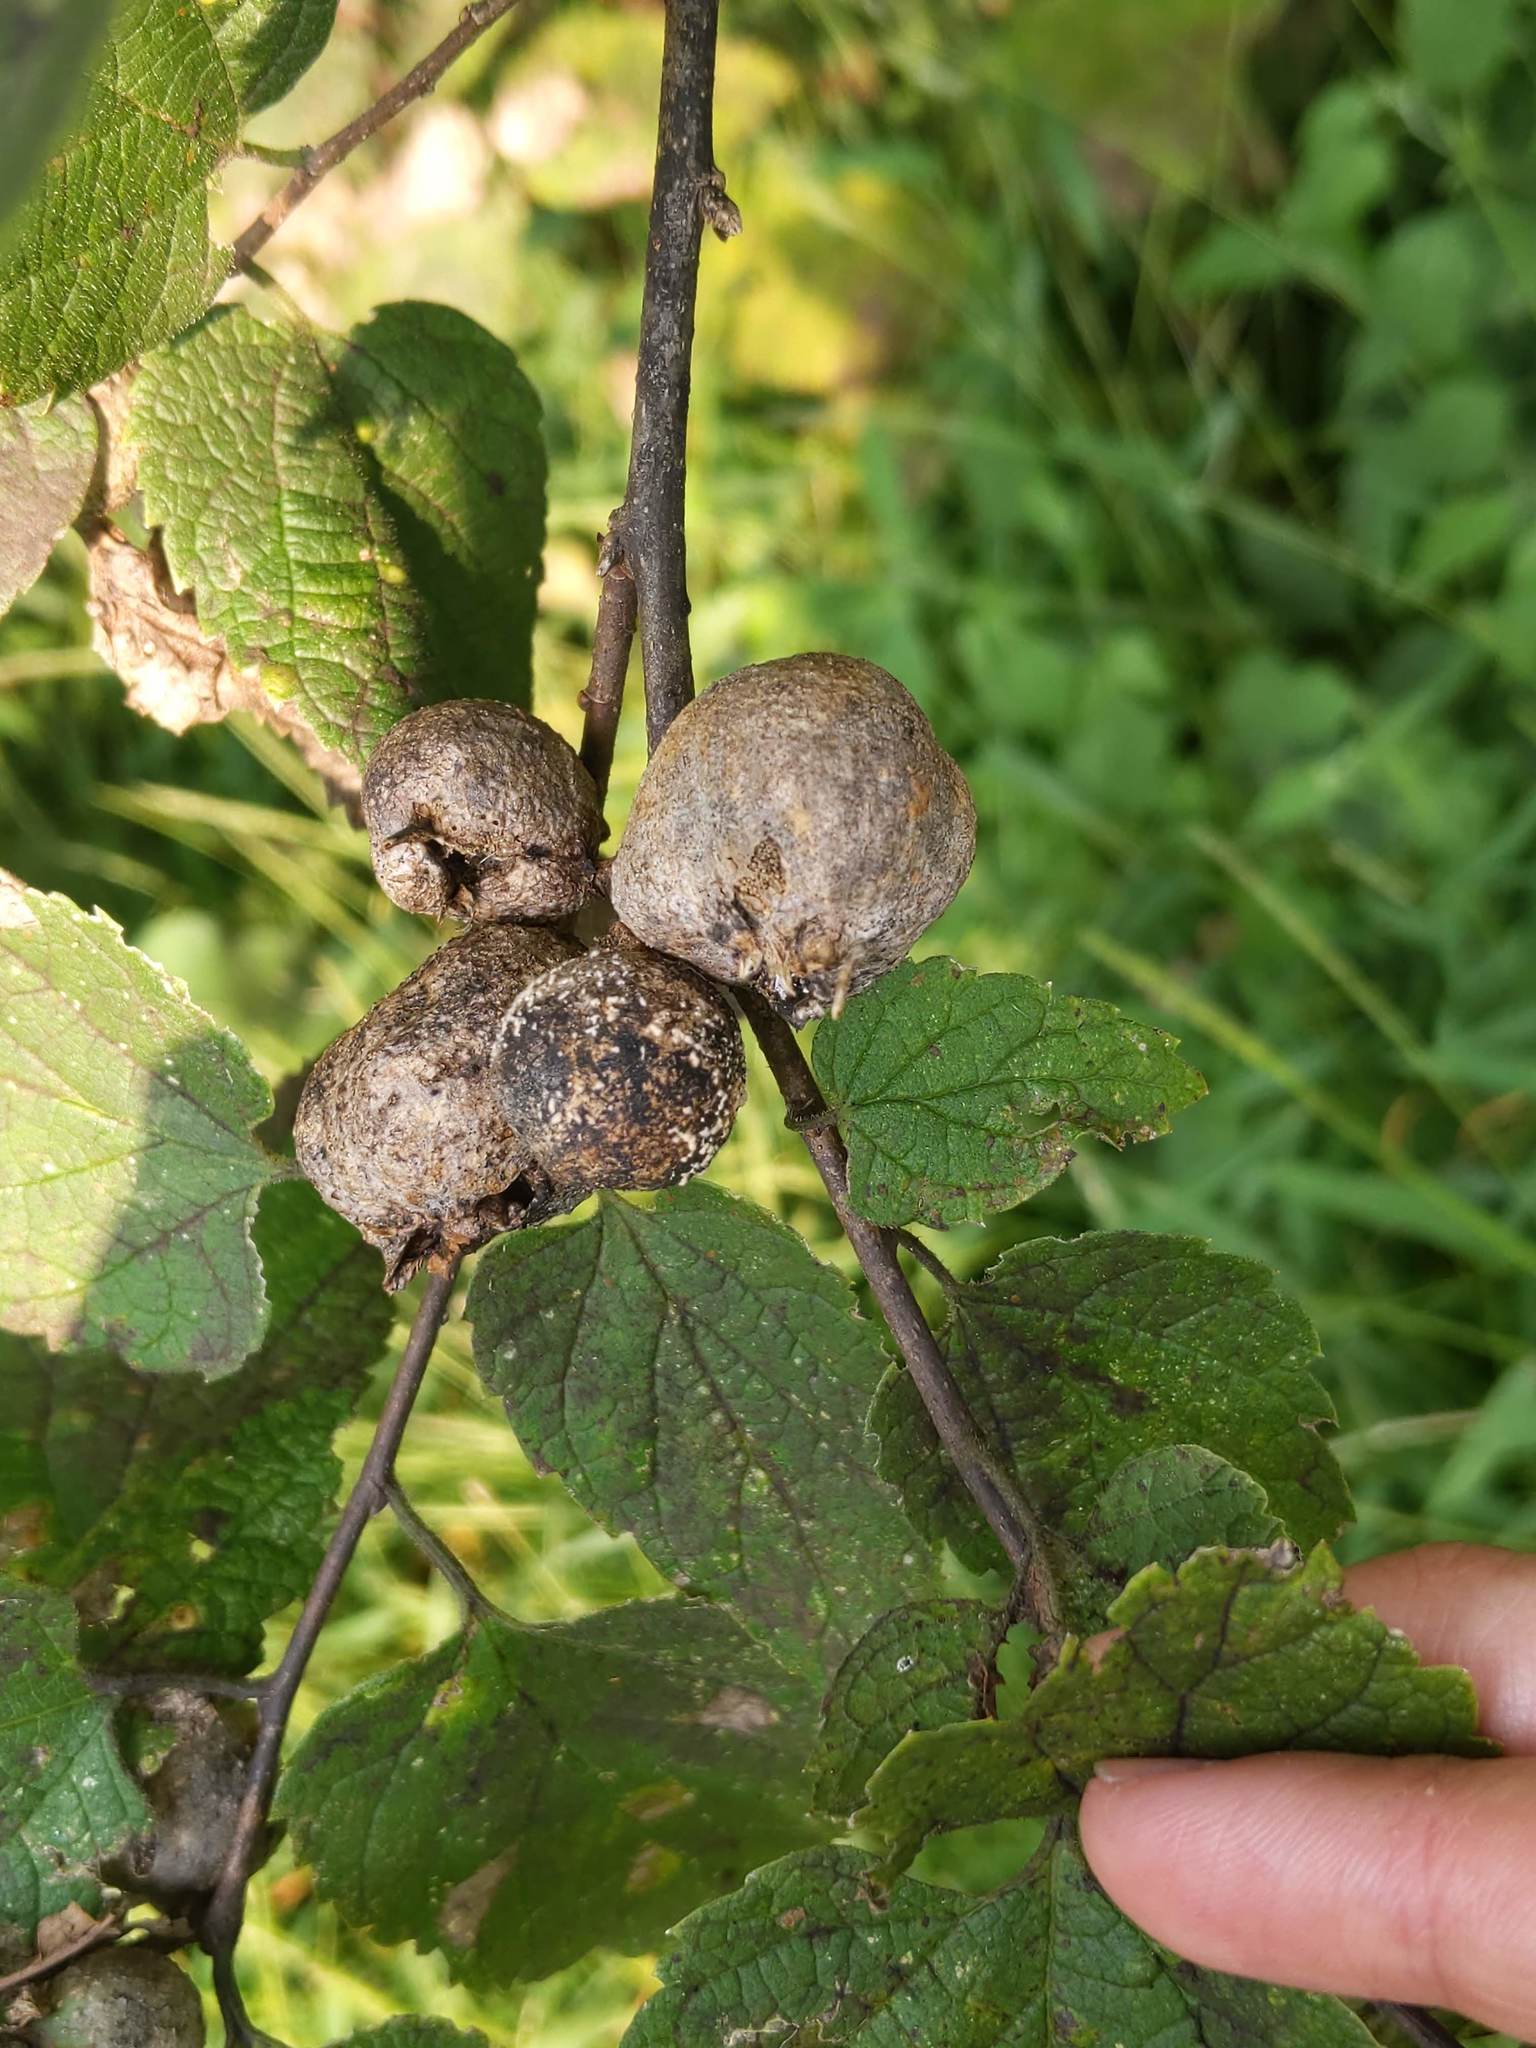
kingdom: Animalia
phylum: Arthropoda
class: Insecta
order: Hemiptera
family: Aphalaridae
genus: Pachypsylla
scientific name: Pachypsylla venusta
